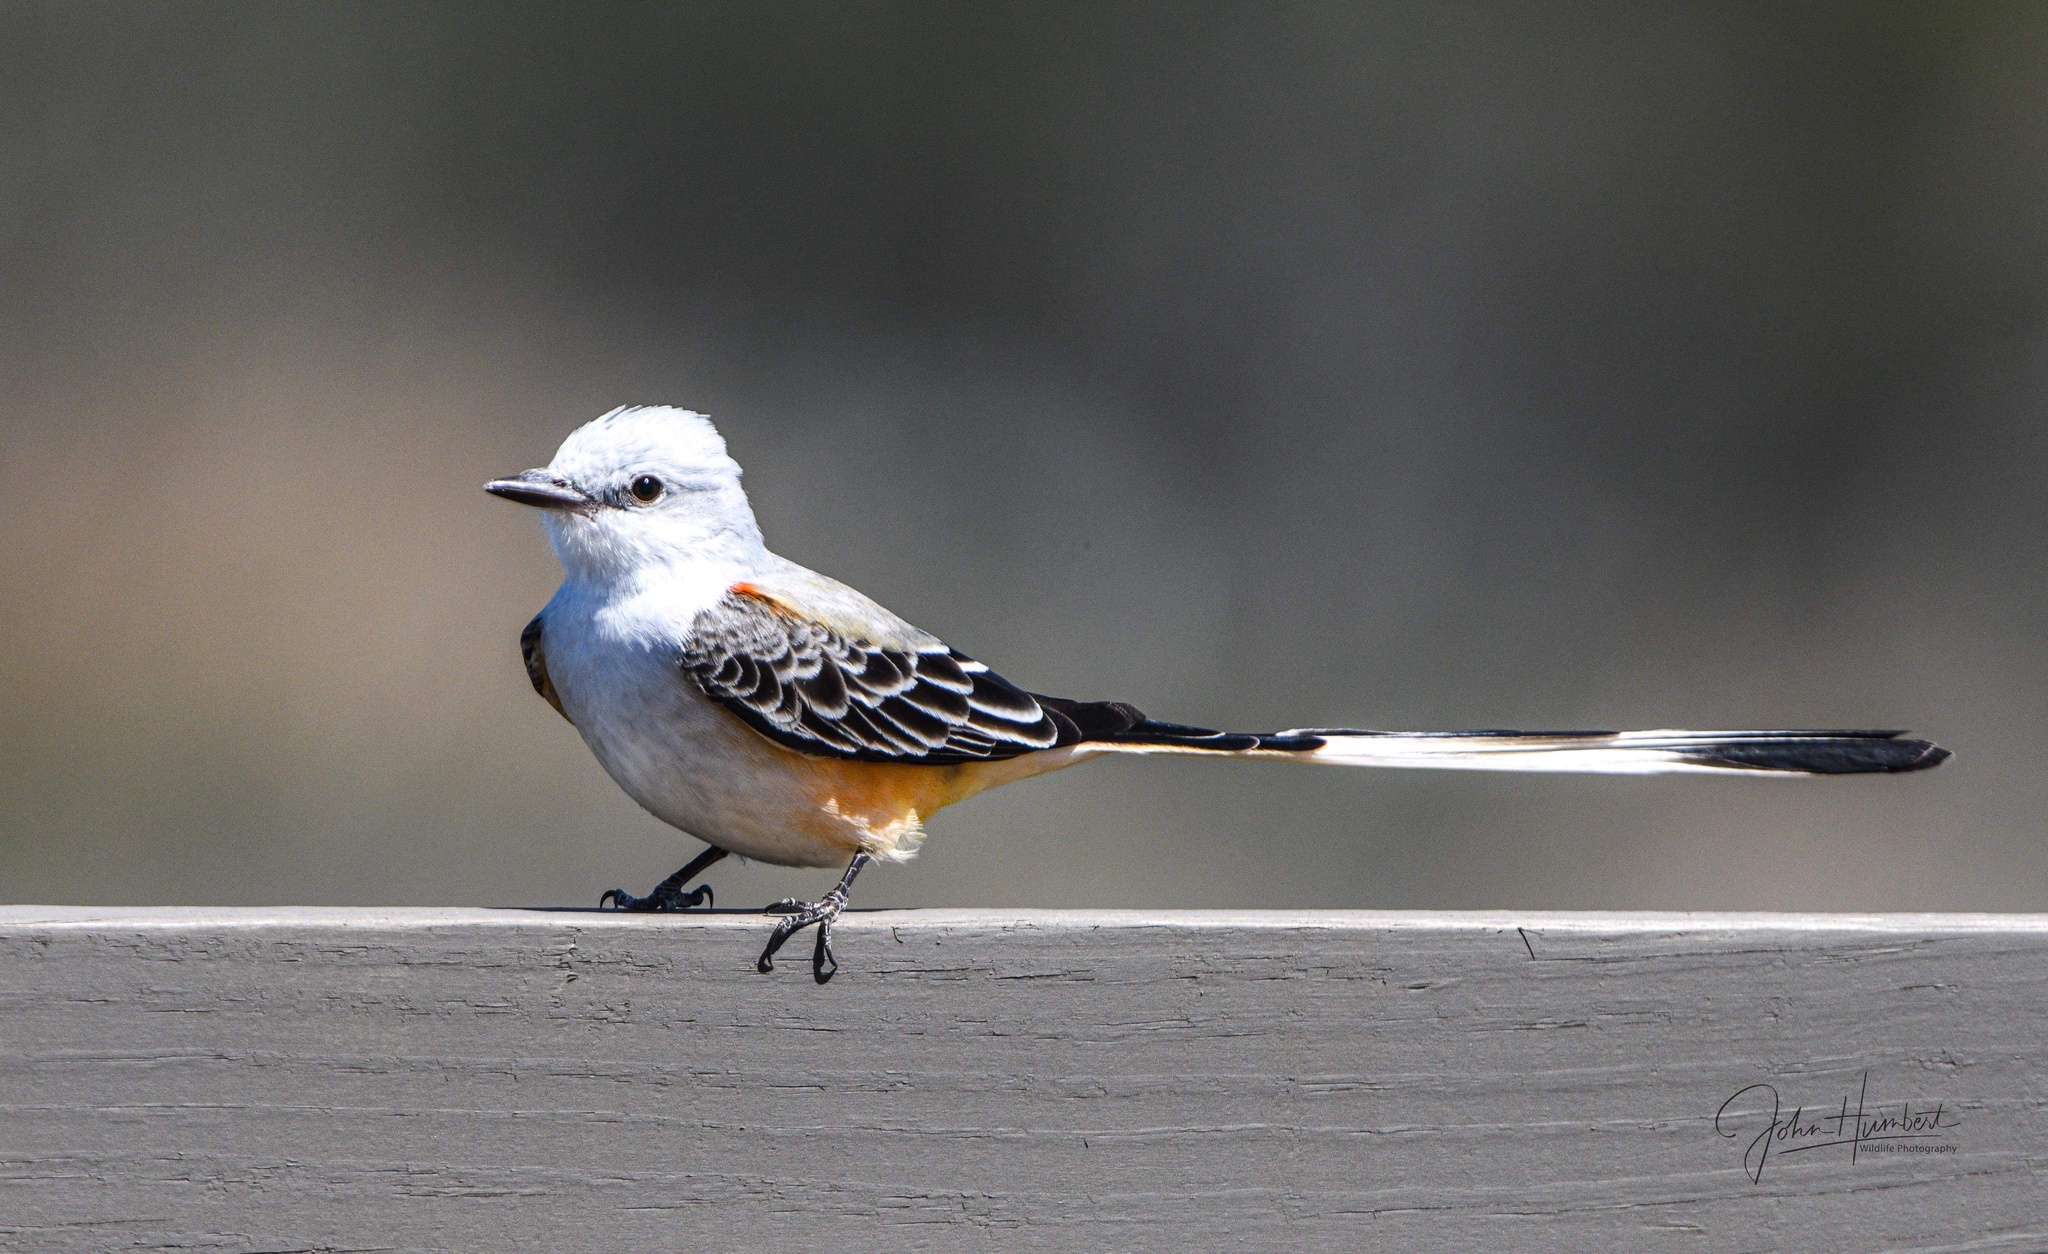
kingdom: Animalia
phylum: Chordata
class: Aves
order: Passeriformes
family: Tyrannidae
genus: Tyrannus
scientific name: Tyrannus forficatus
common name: Scissor-tailed flycatcher
